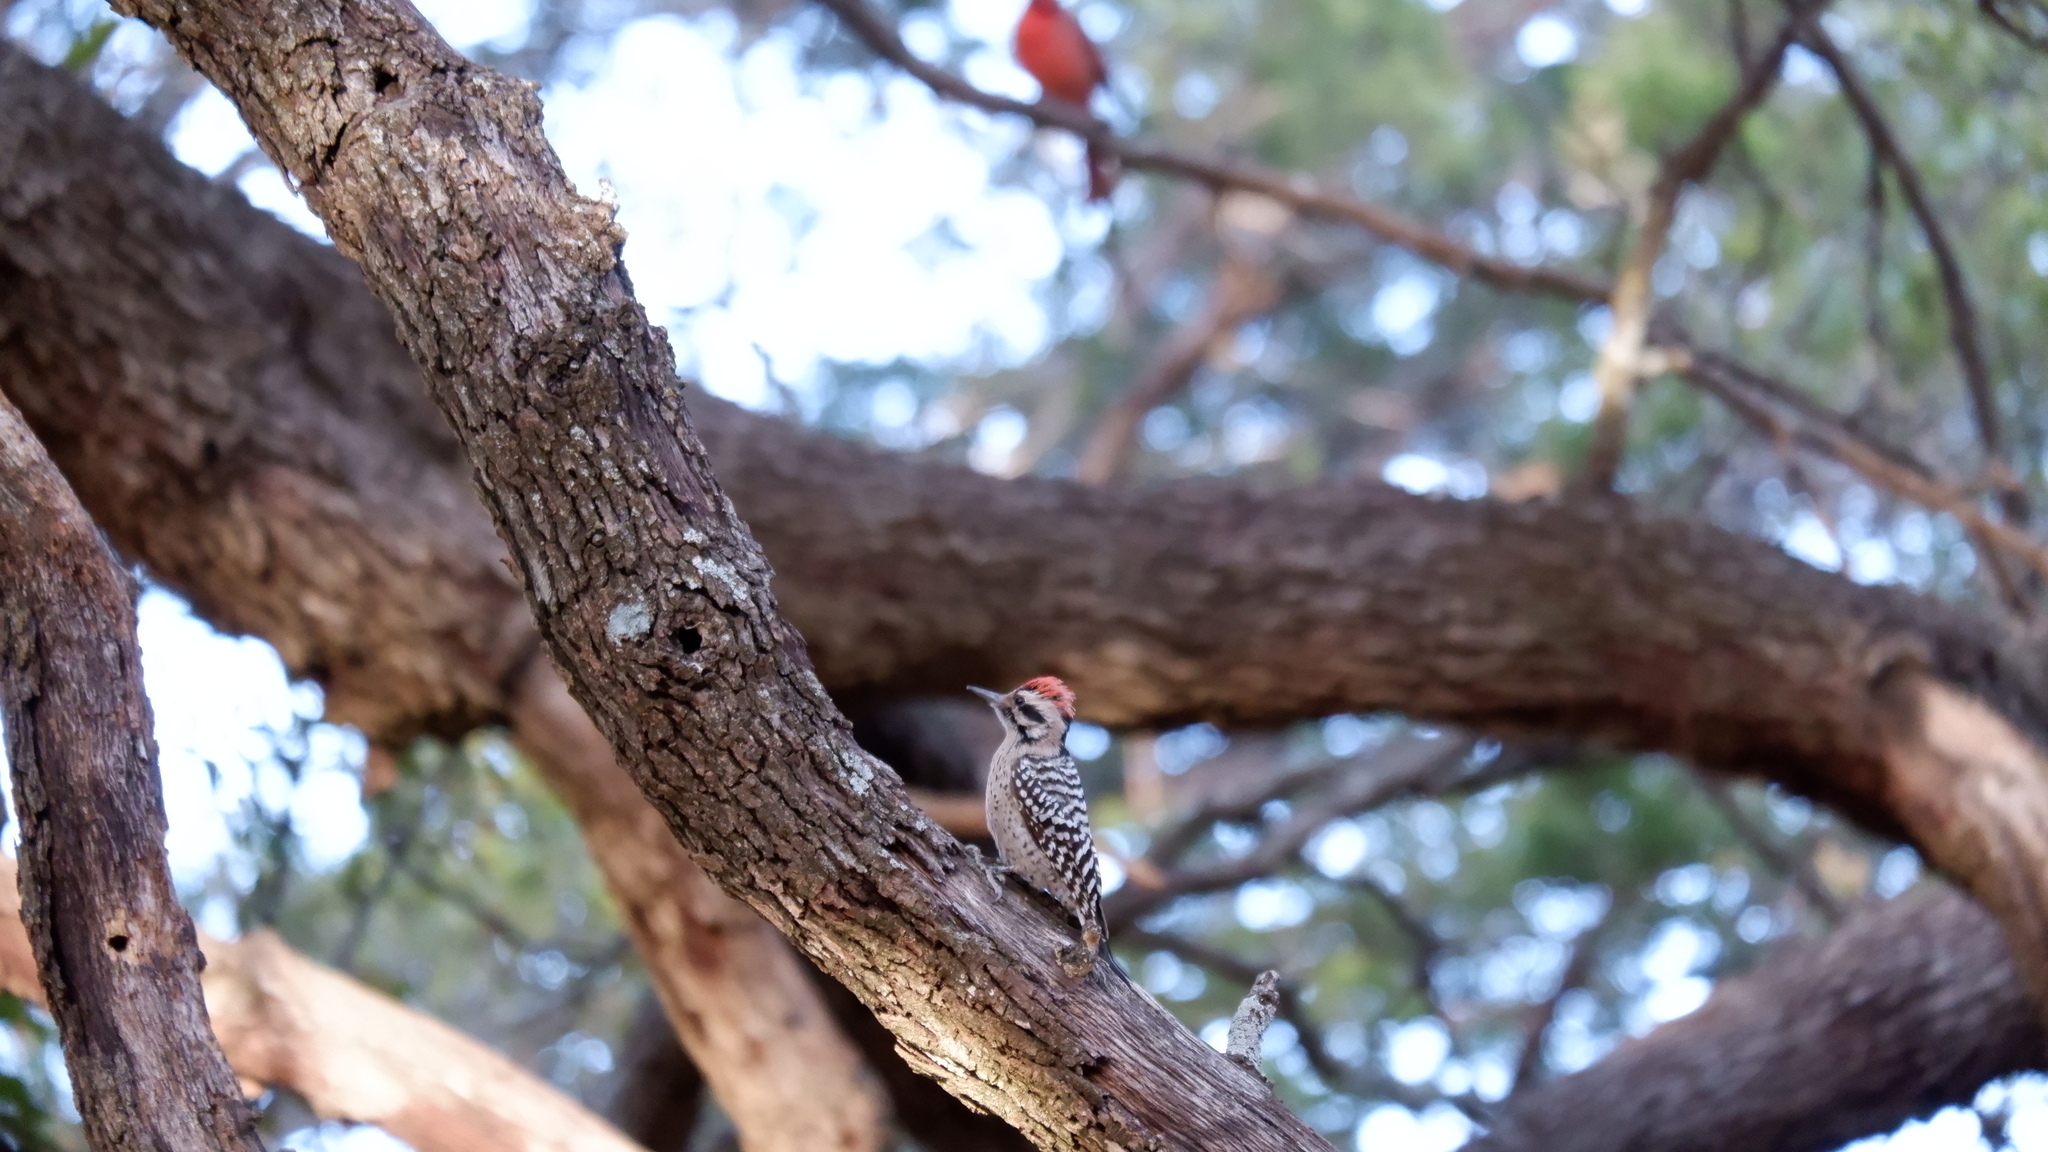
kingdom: Animalia
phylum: Chordata
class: Aves
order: Piciformes
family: Picidae
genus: Dryobates
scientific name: Dryobates scalaris
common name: Ladder-backed woodpecker
